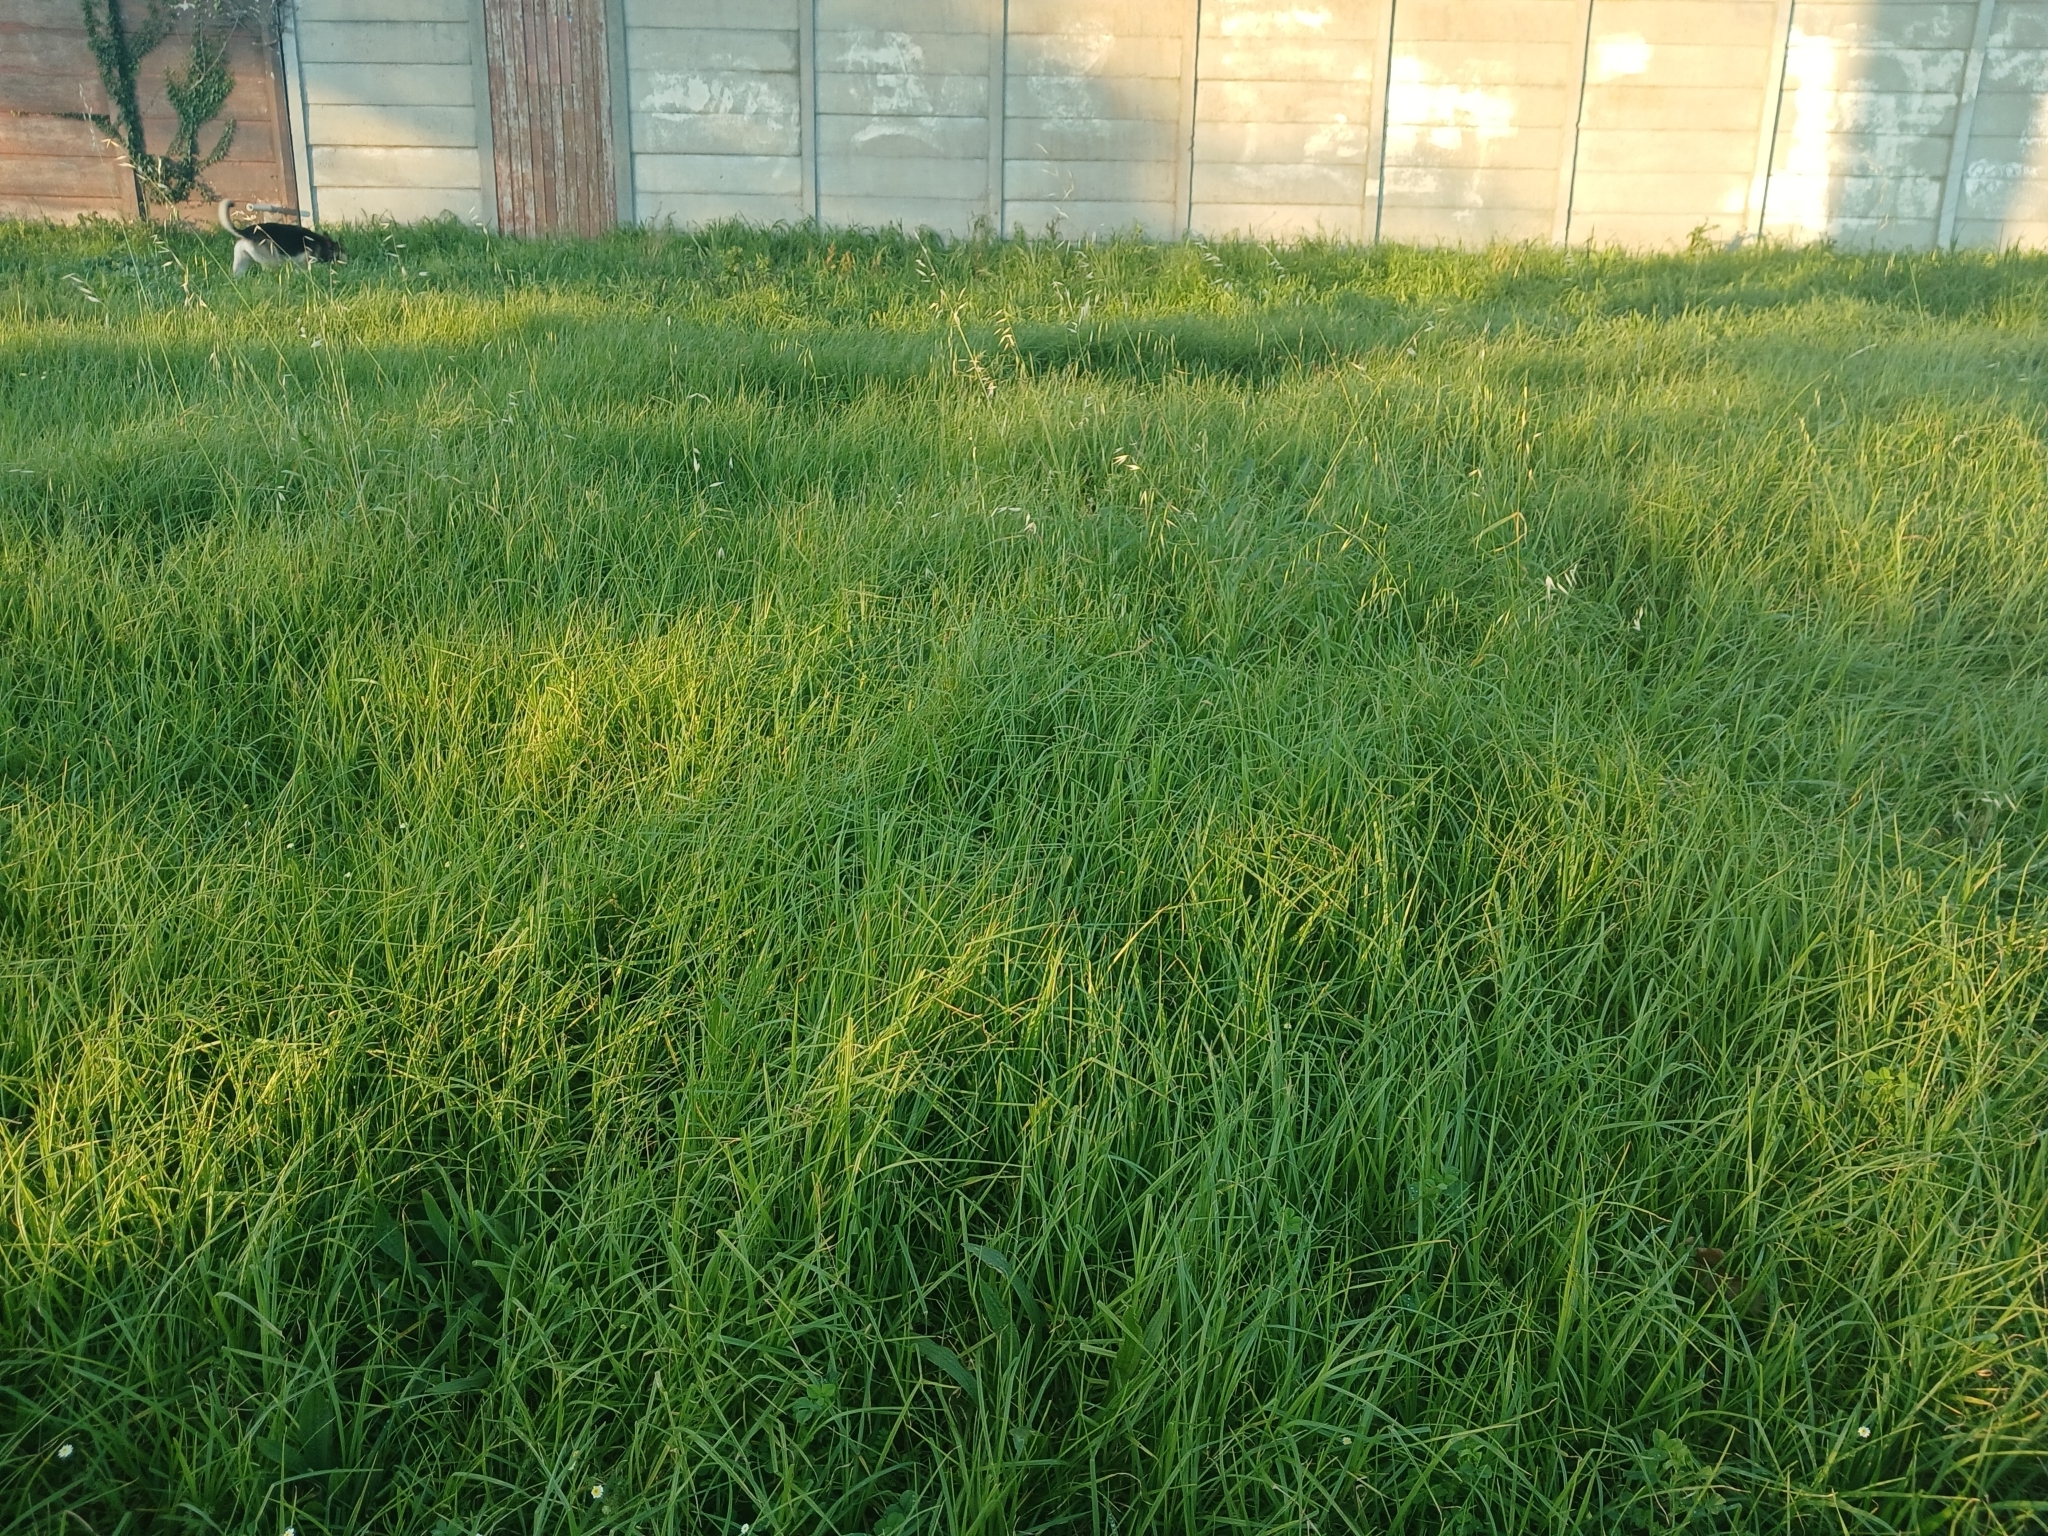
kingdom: Plantae
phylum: Tracheophyta
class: Liliopsida
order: Poales
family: Poaceae
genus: Avena
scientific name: Avena fatua
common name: Wild oat
